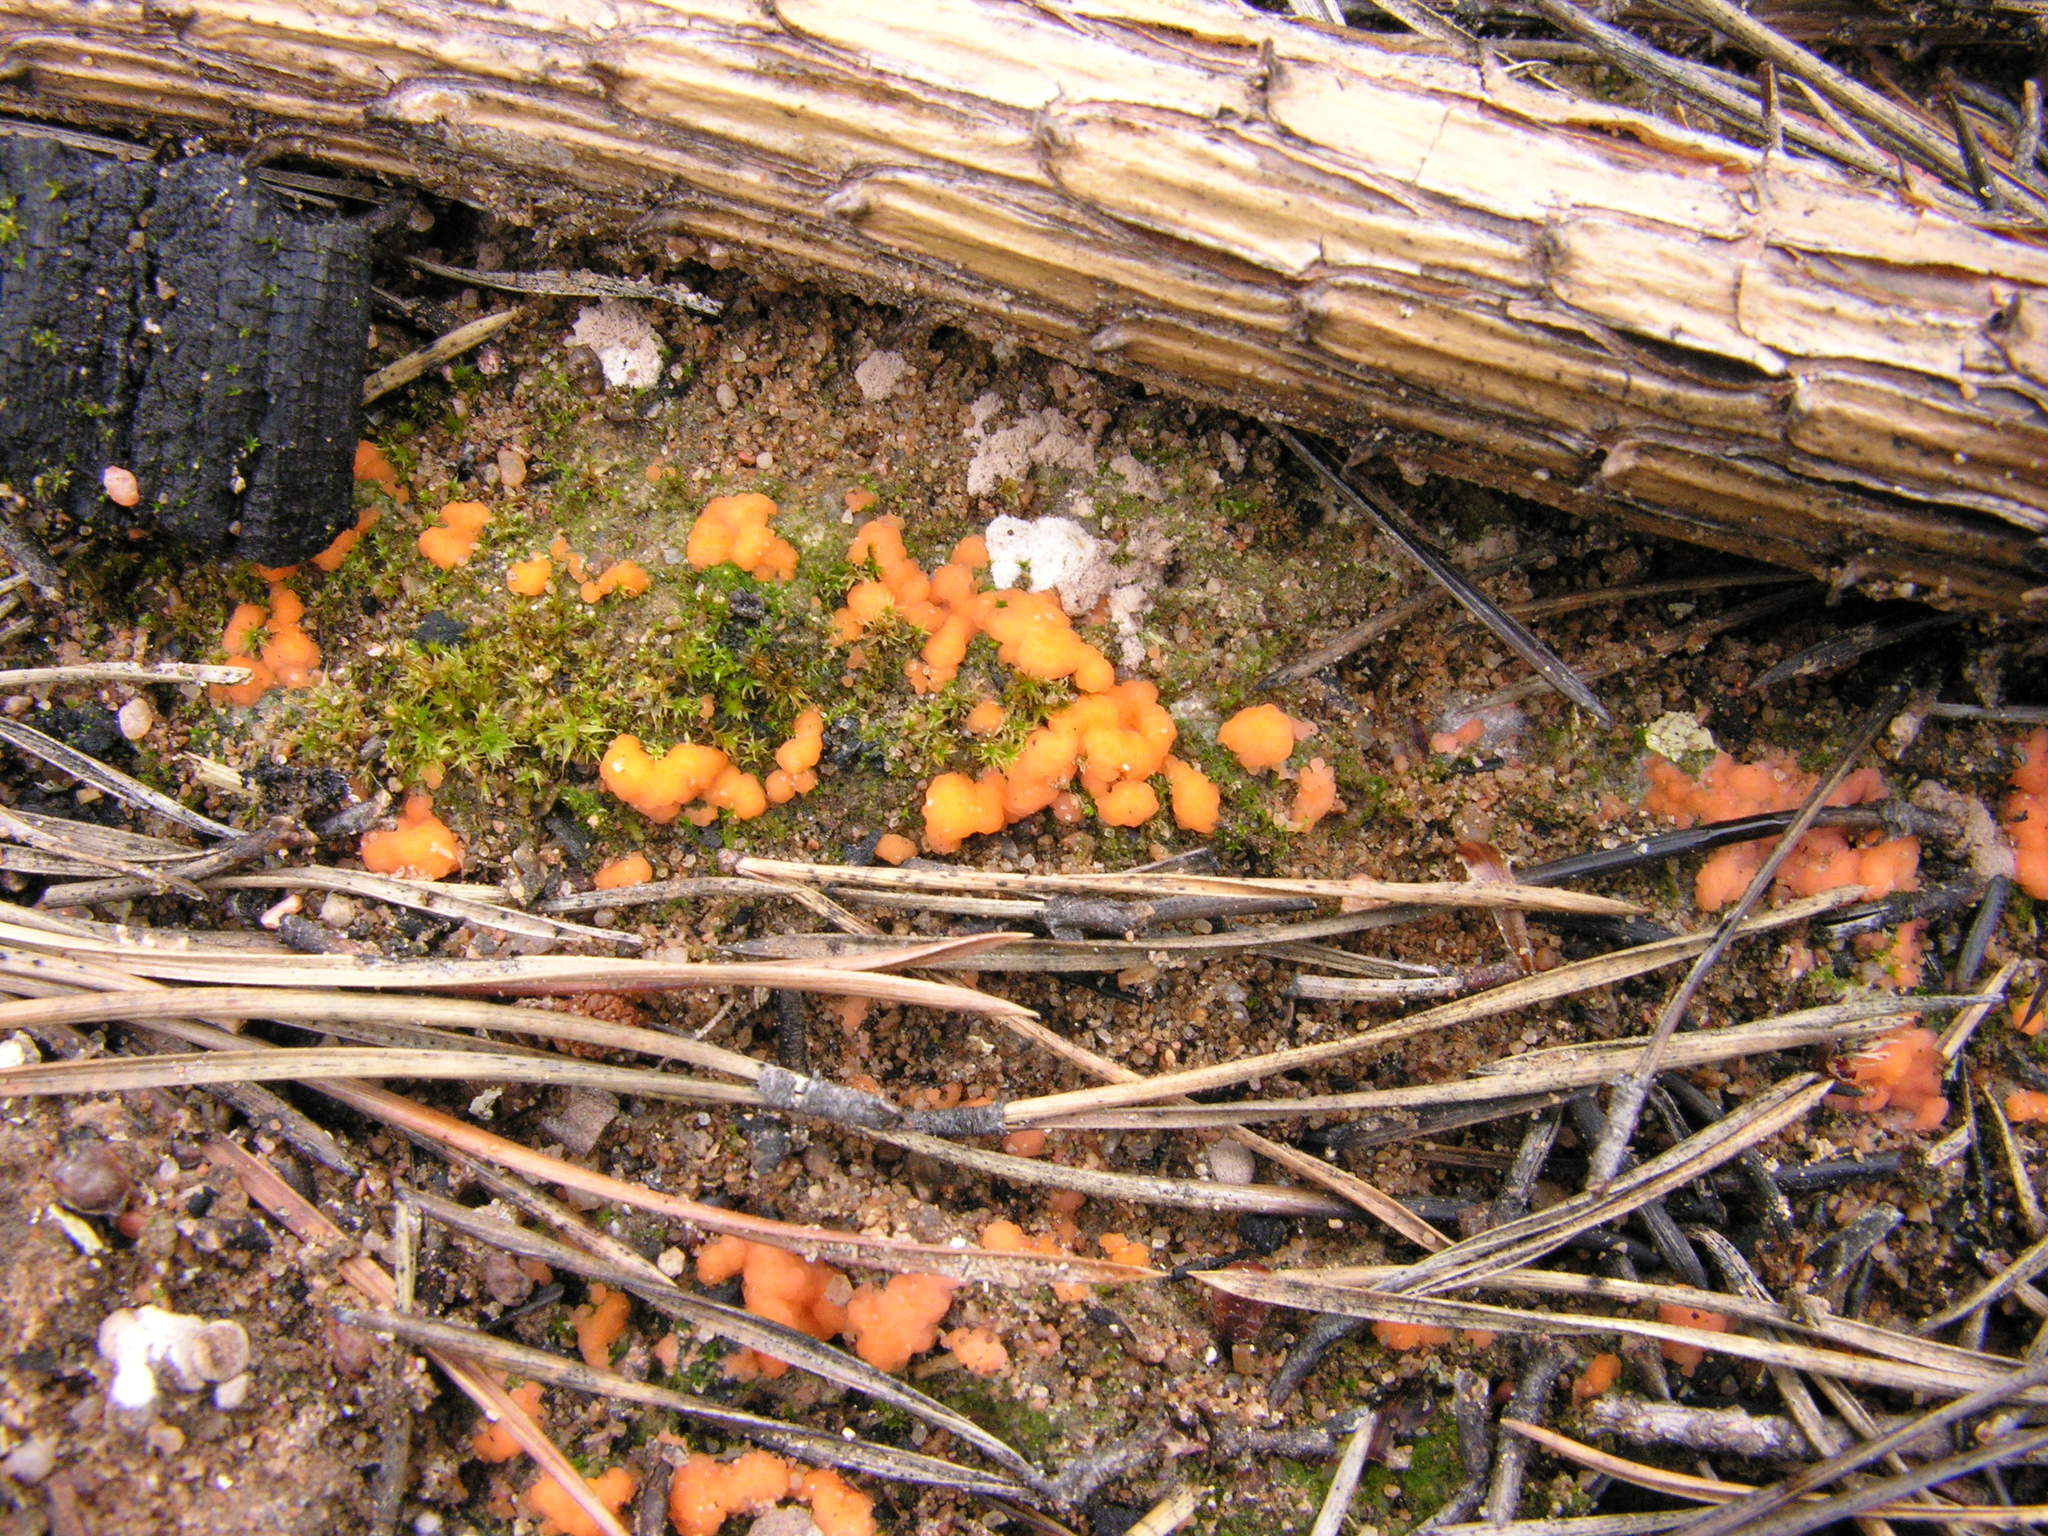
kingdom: Fungi
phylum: Ascomycota
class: Pezizomycetes
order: Pezizales
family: Pyronemataceae
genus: Pyronema
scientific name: Pyronema omphalodes
